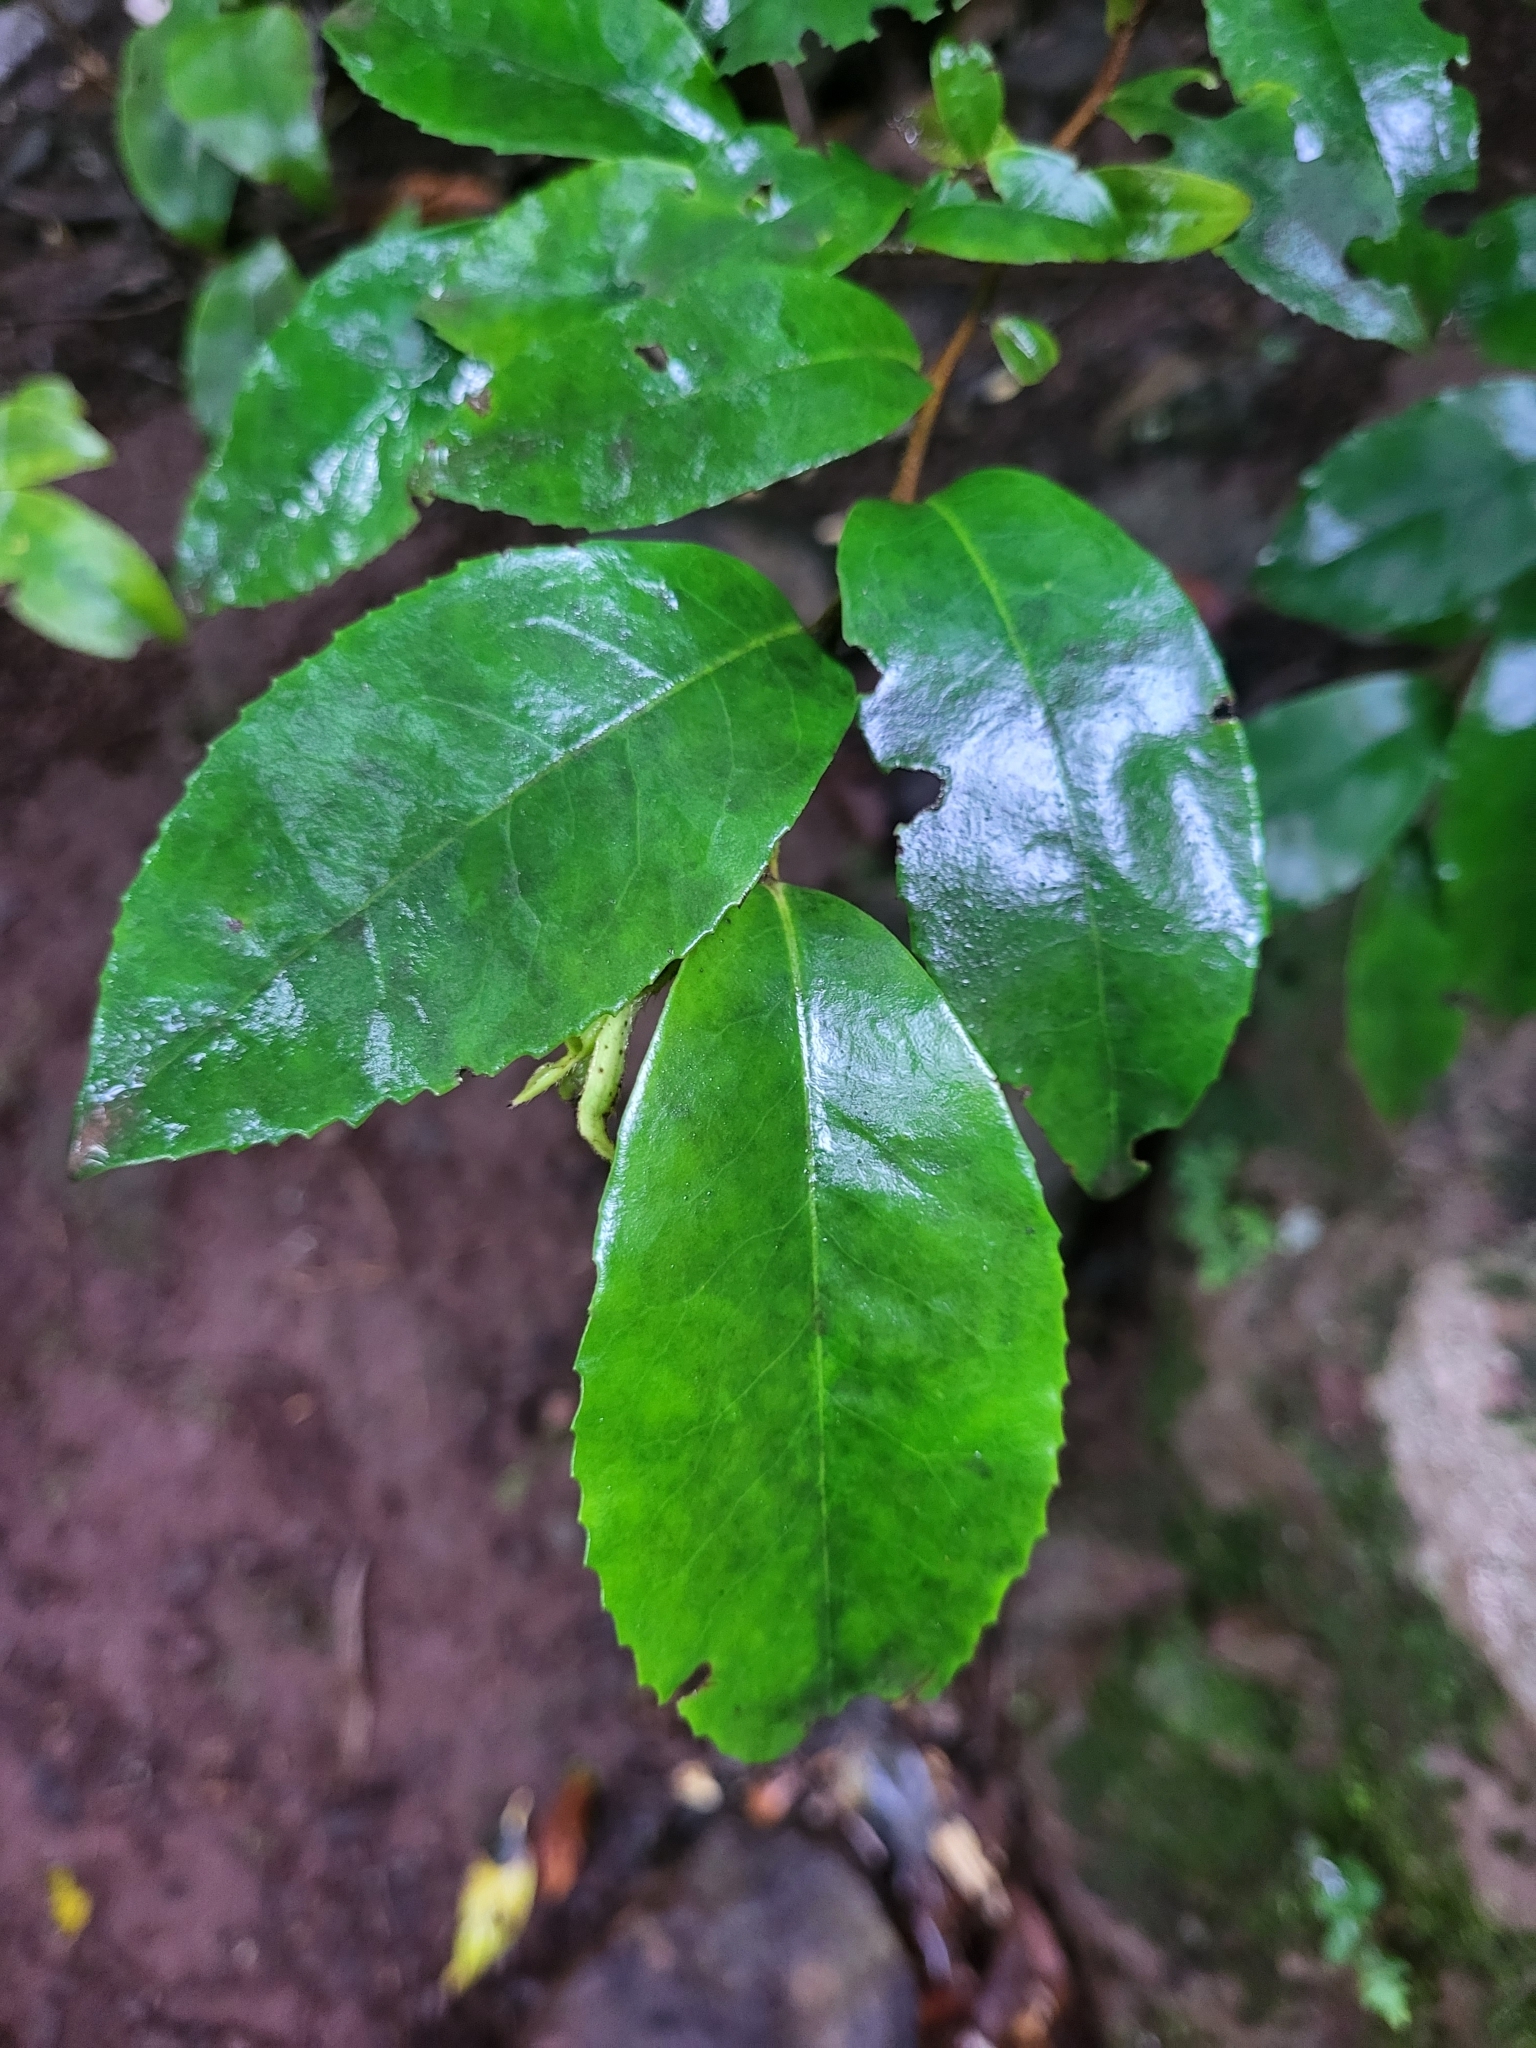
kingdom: Plantae
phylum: Tracheophyta
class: Magnoliopsida
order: Ericales
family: Pentaphylacaceae
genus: Visnea
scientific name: Visnea mocanera
